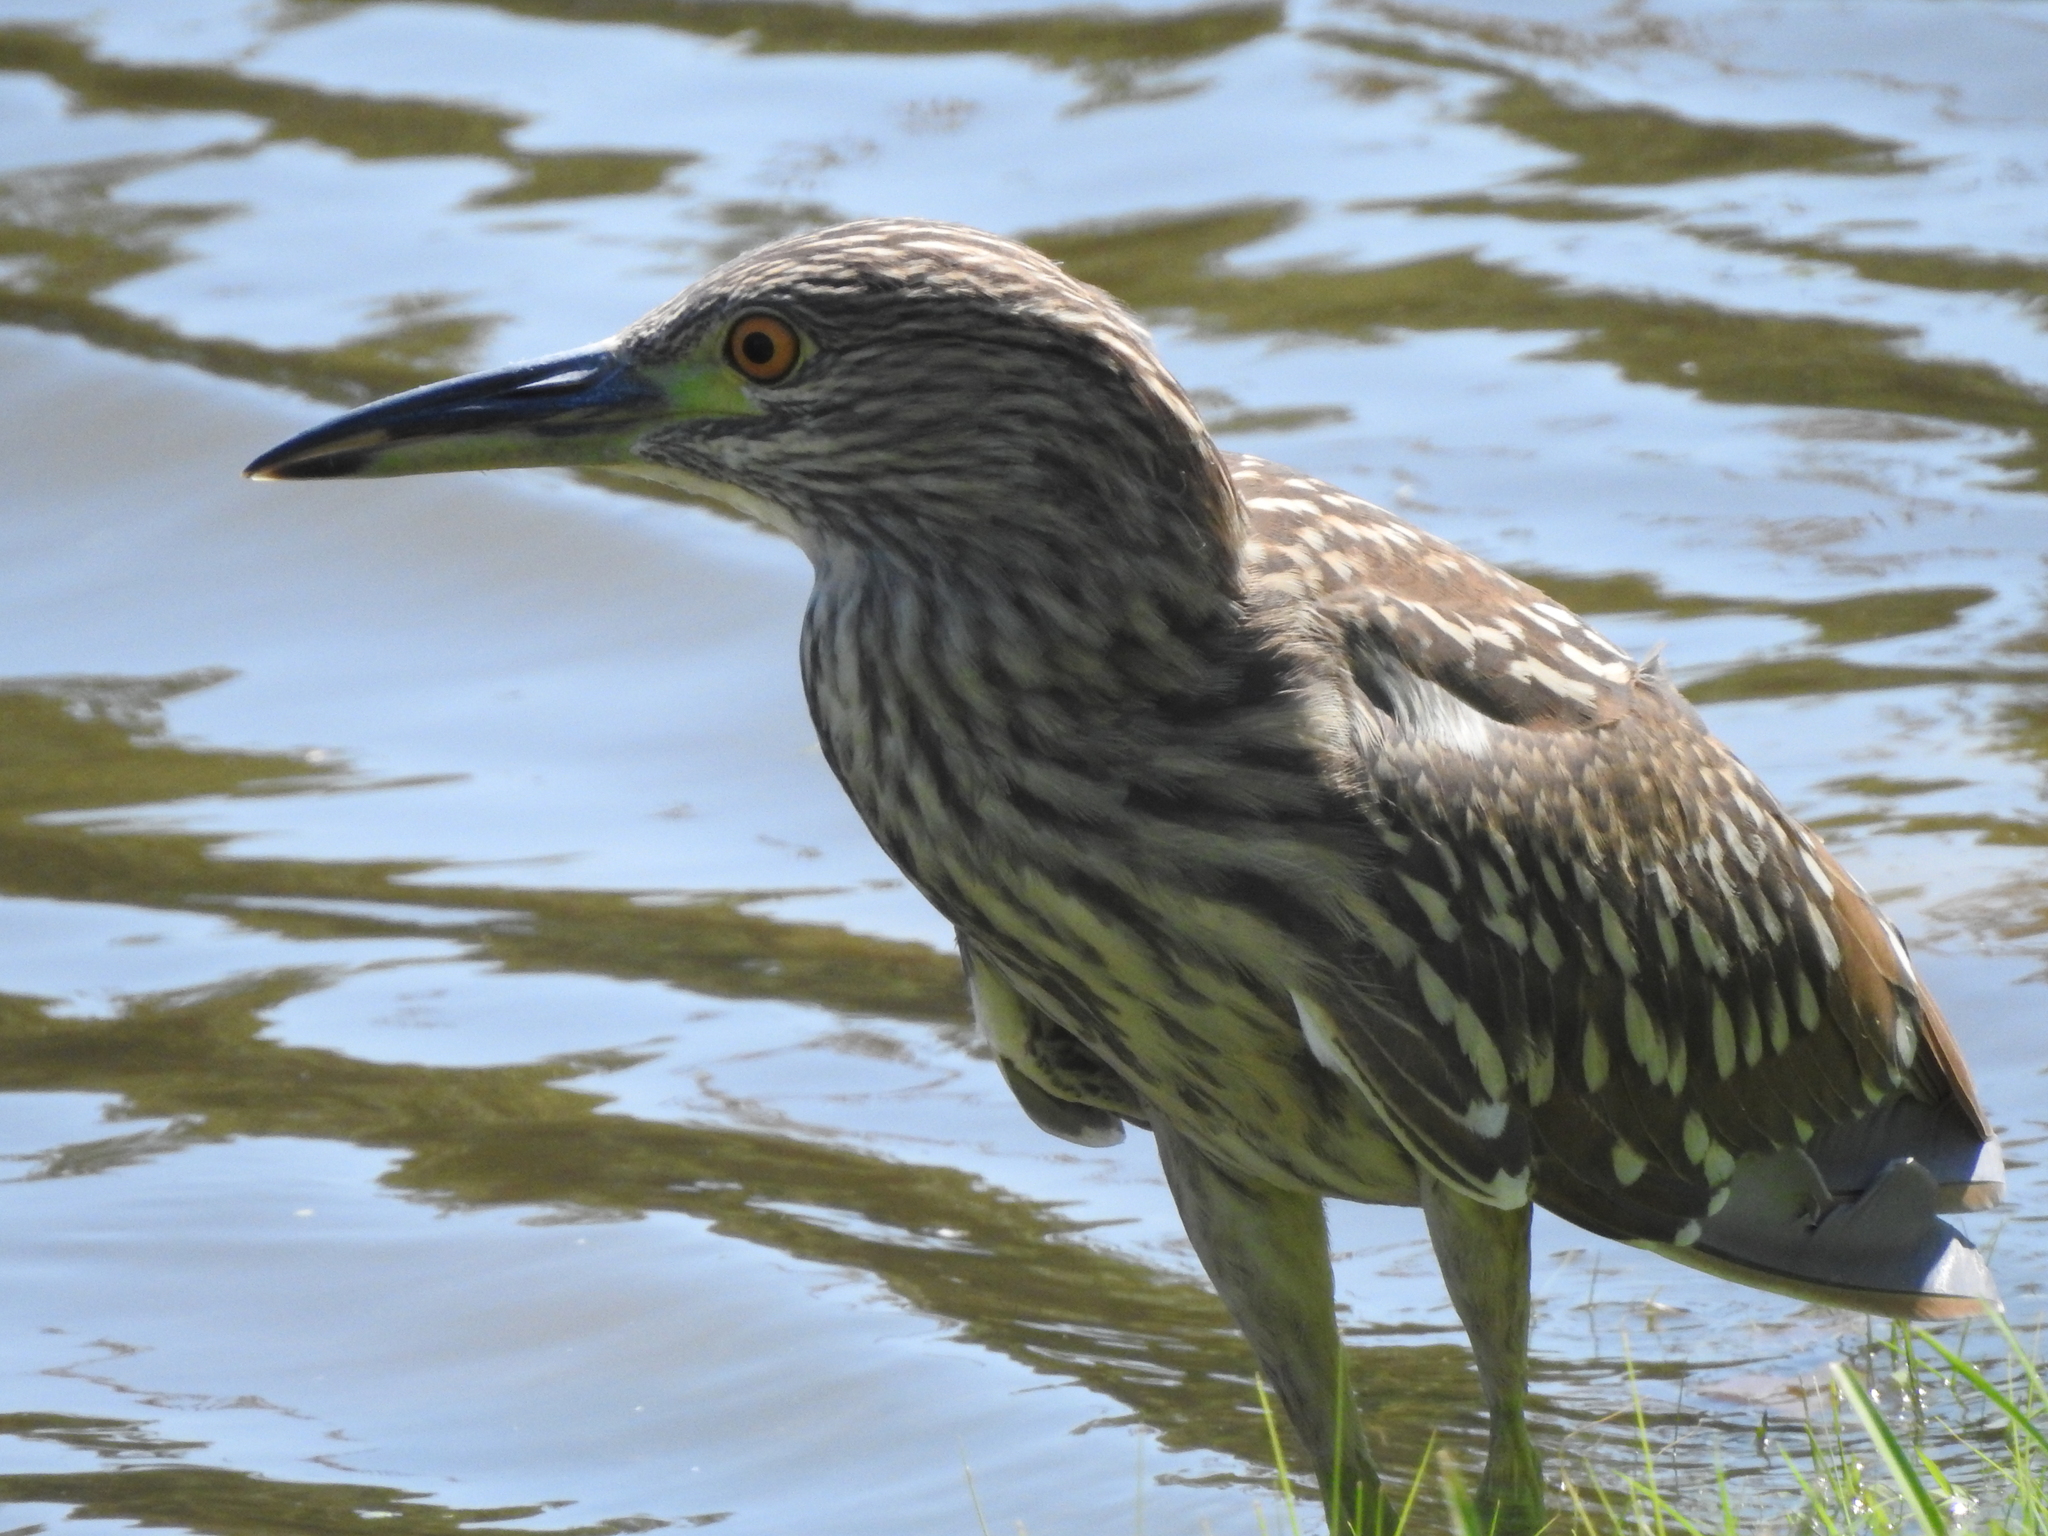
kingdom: Animalia
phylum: Chordata
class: Aves
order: Pelecaniformes
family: Ardeidae
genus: Nycticorax
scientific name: Nycticorax nycticorax
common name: Black-crowned night heron
